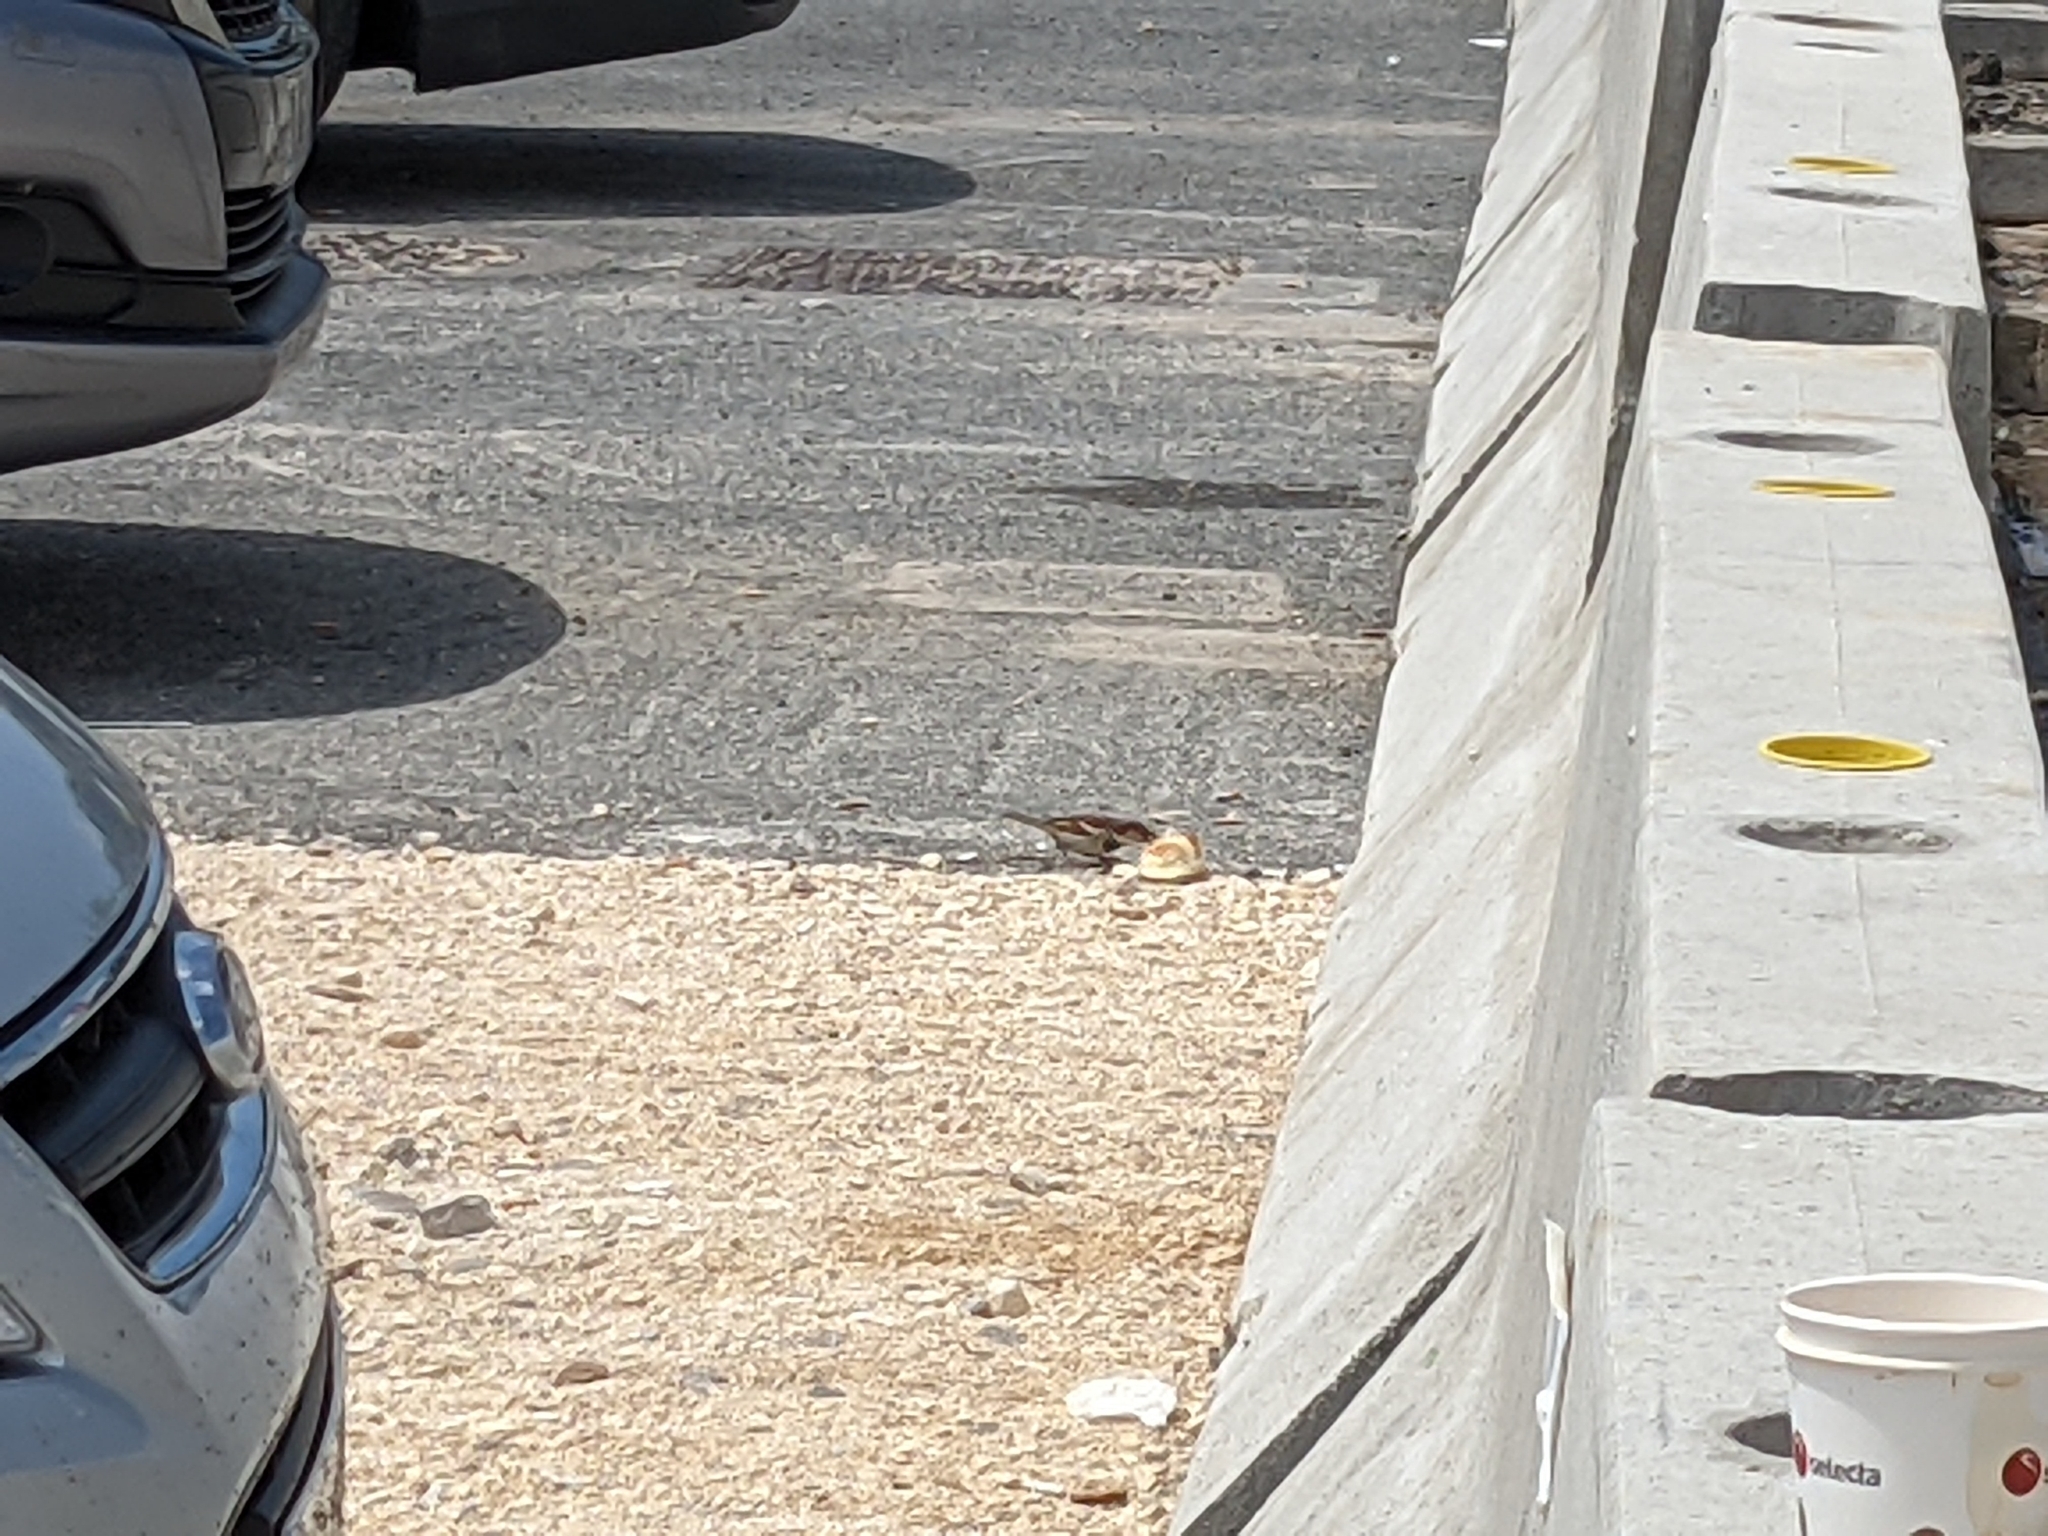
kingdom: Animalia
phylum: Chordata
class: Aves
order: Passeriformes
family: Passeridae
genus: Passer
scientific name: Passer domesticus
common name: House sparrow
